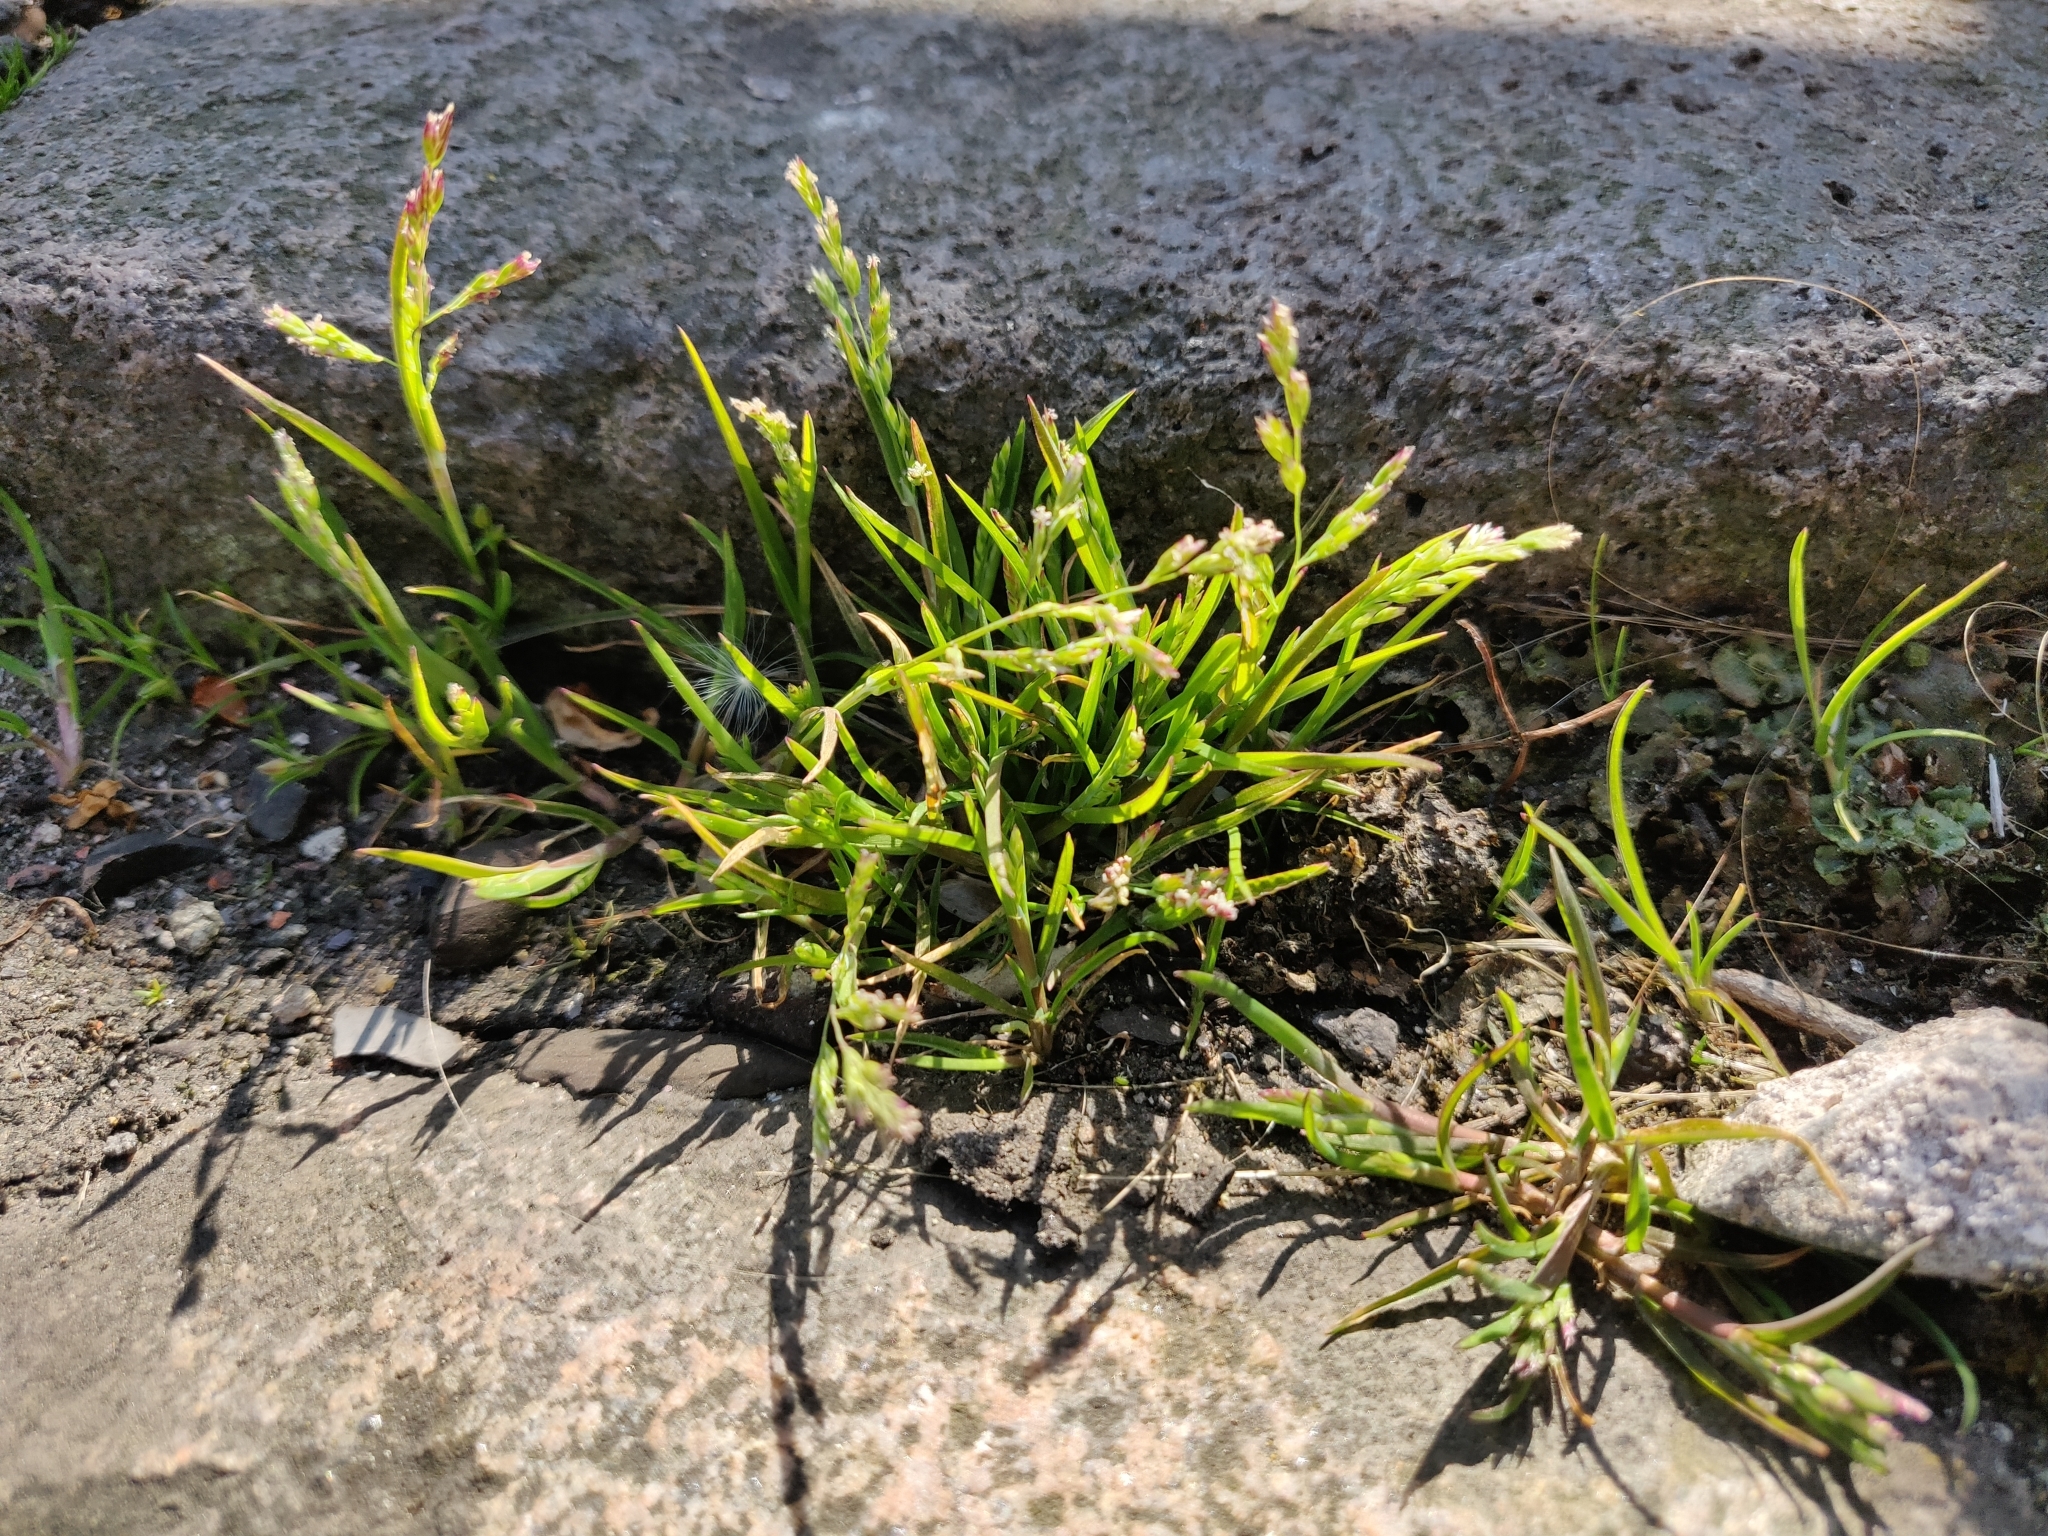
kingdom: Plantae
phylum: Tracheophyta
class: Liliopsida
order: Poales
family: Poaceae
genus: Poa
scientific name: Poa annua
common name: Annual bluegrass
